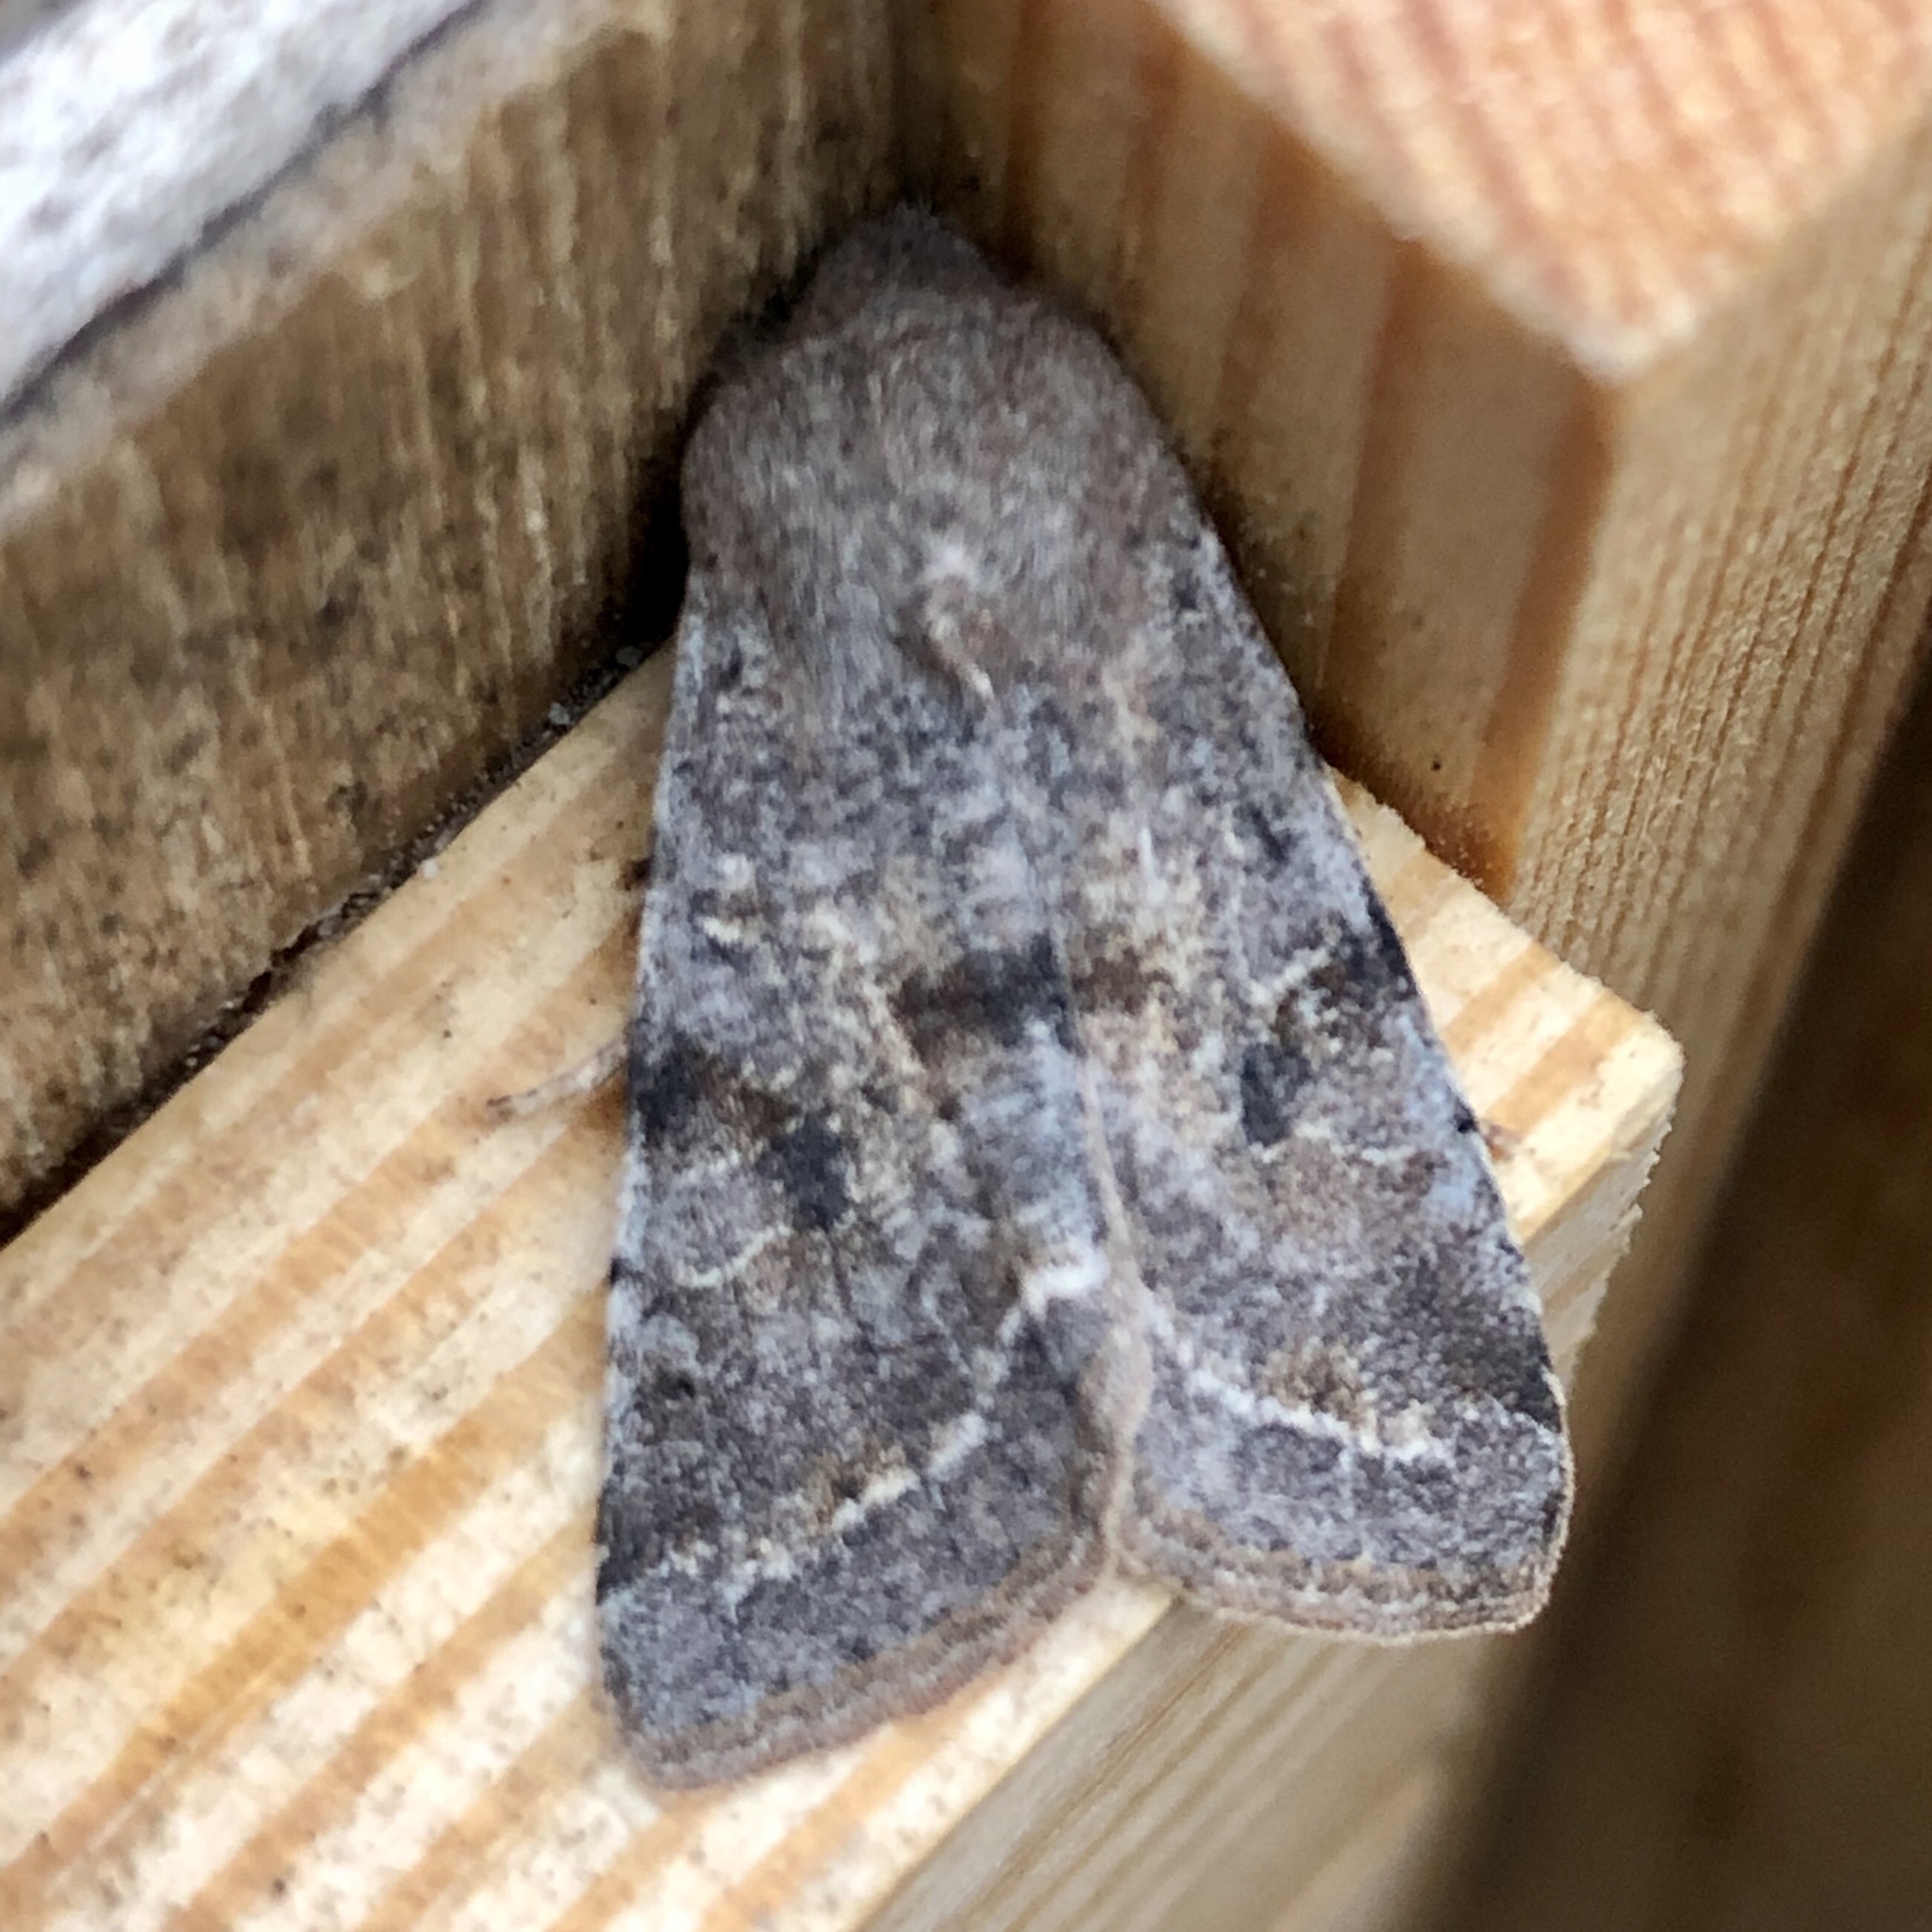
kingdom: Animalia
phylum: Arthropoda
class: Insecta
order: Lepidoptera
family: Noctuidae
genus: Orthosia
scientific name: Orthosia incerta
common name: Clouded drab
